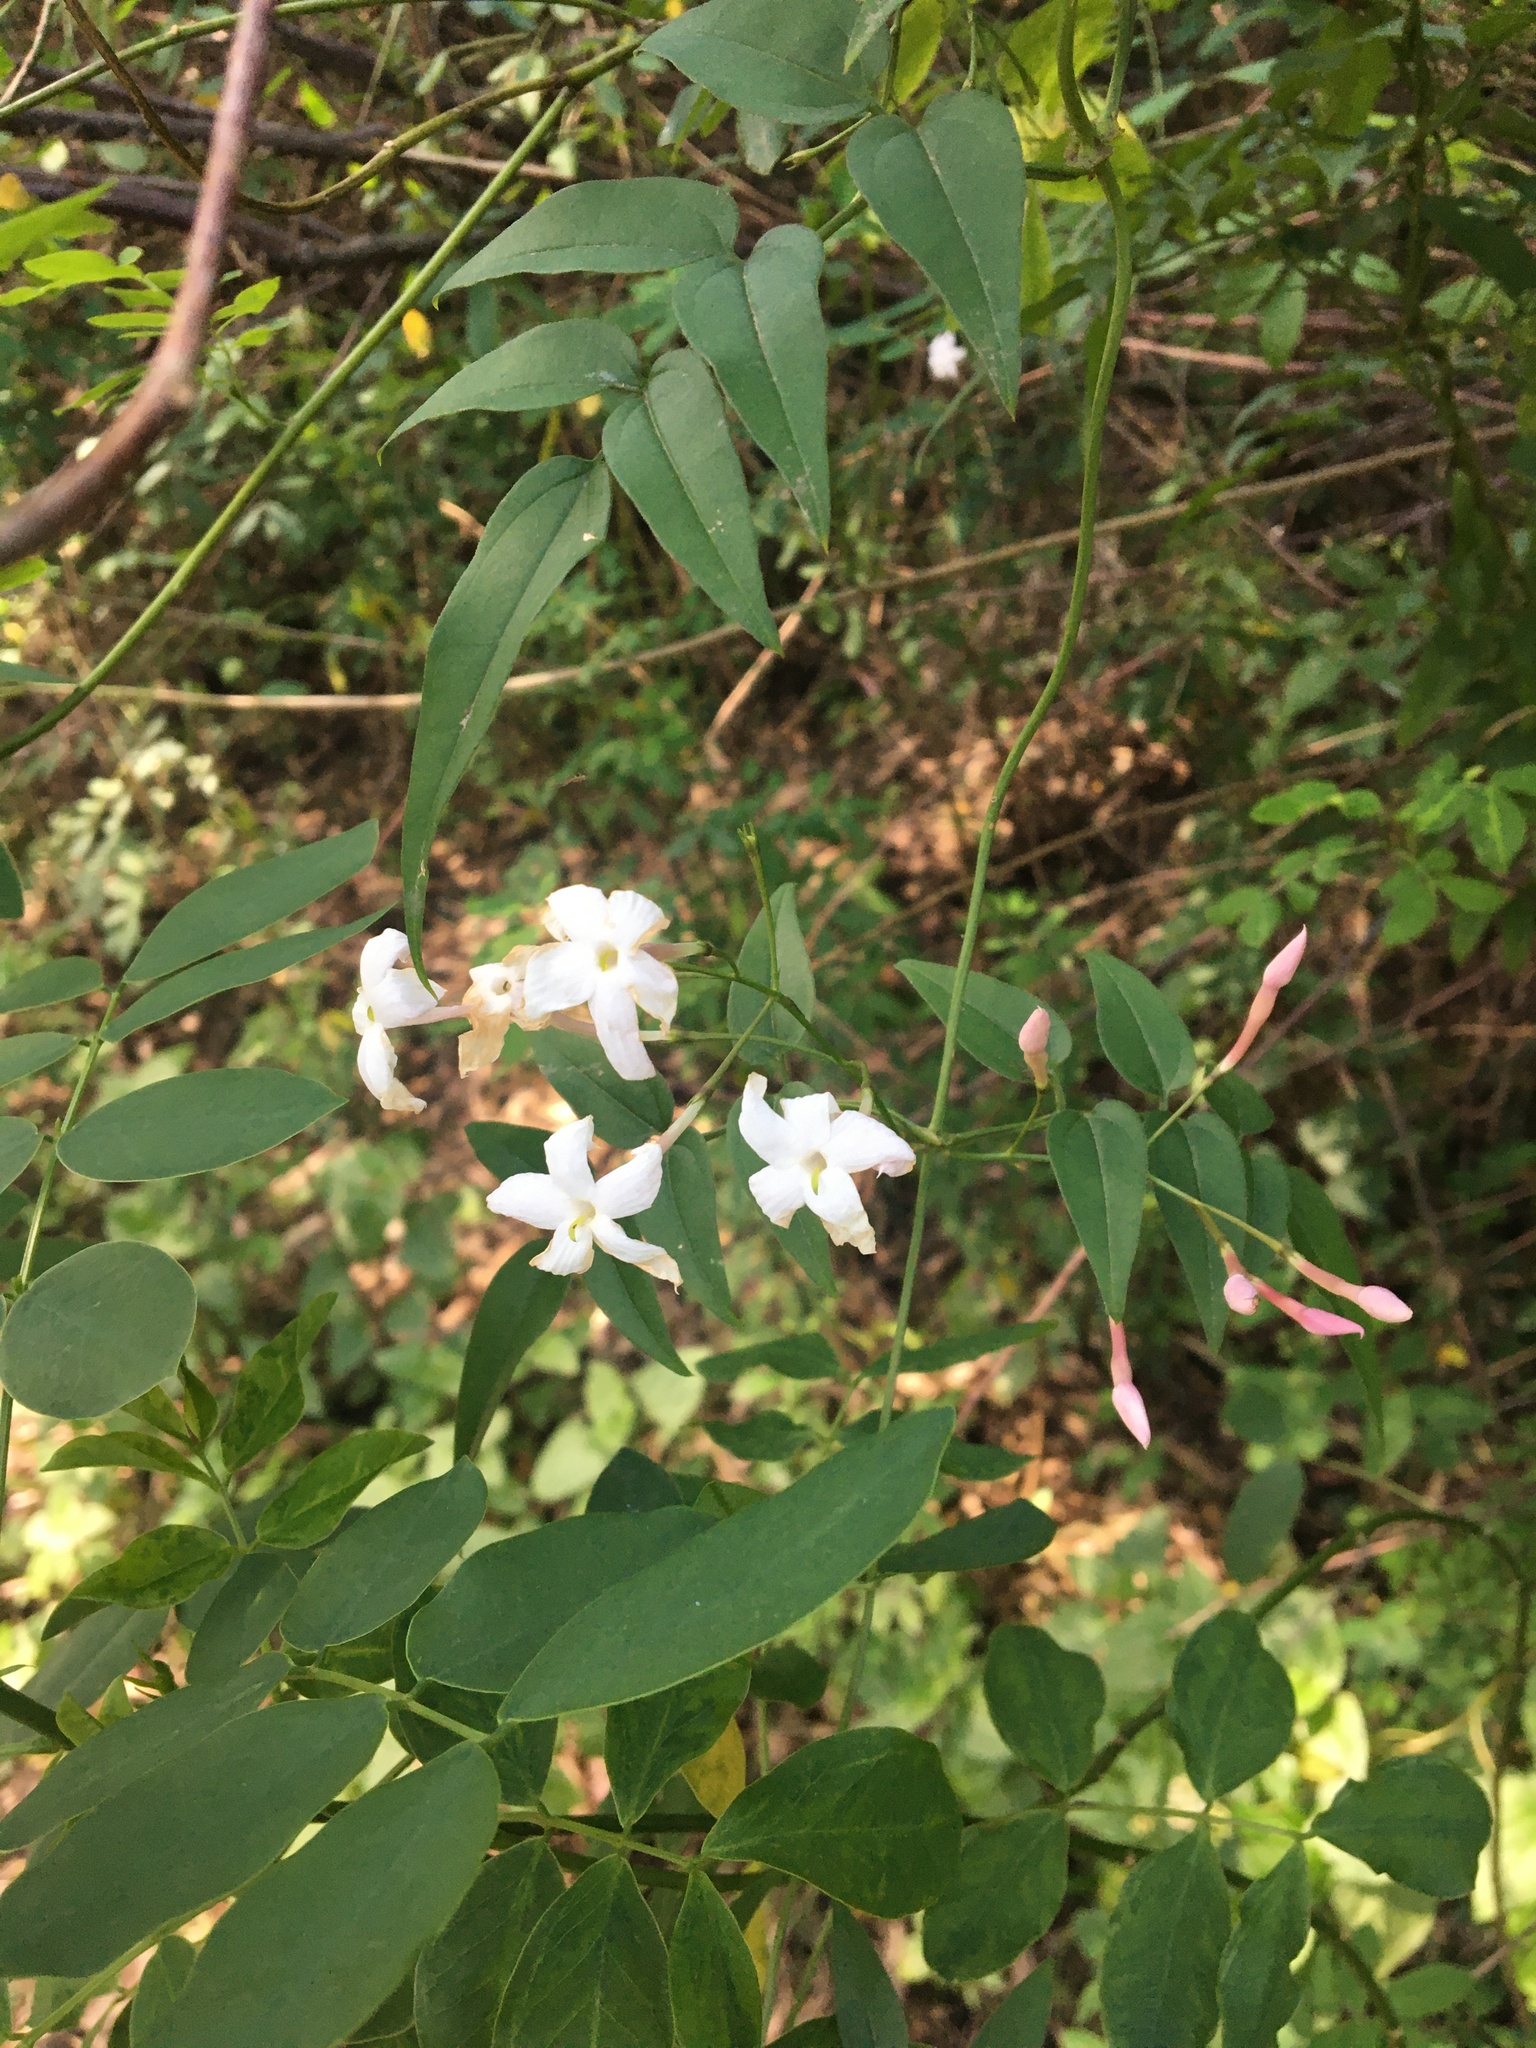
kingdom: Plantae
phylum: Tracheophyta
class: Magnoliopsida
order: Lamiales
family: Oleaceae
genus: Jasminum
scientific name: Jasminum polyanthum
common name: Pink jasmine
